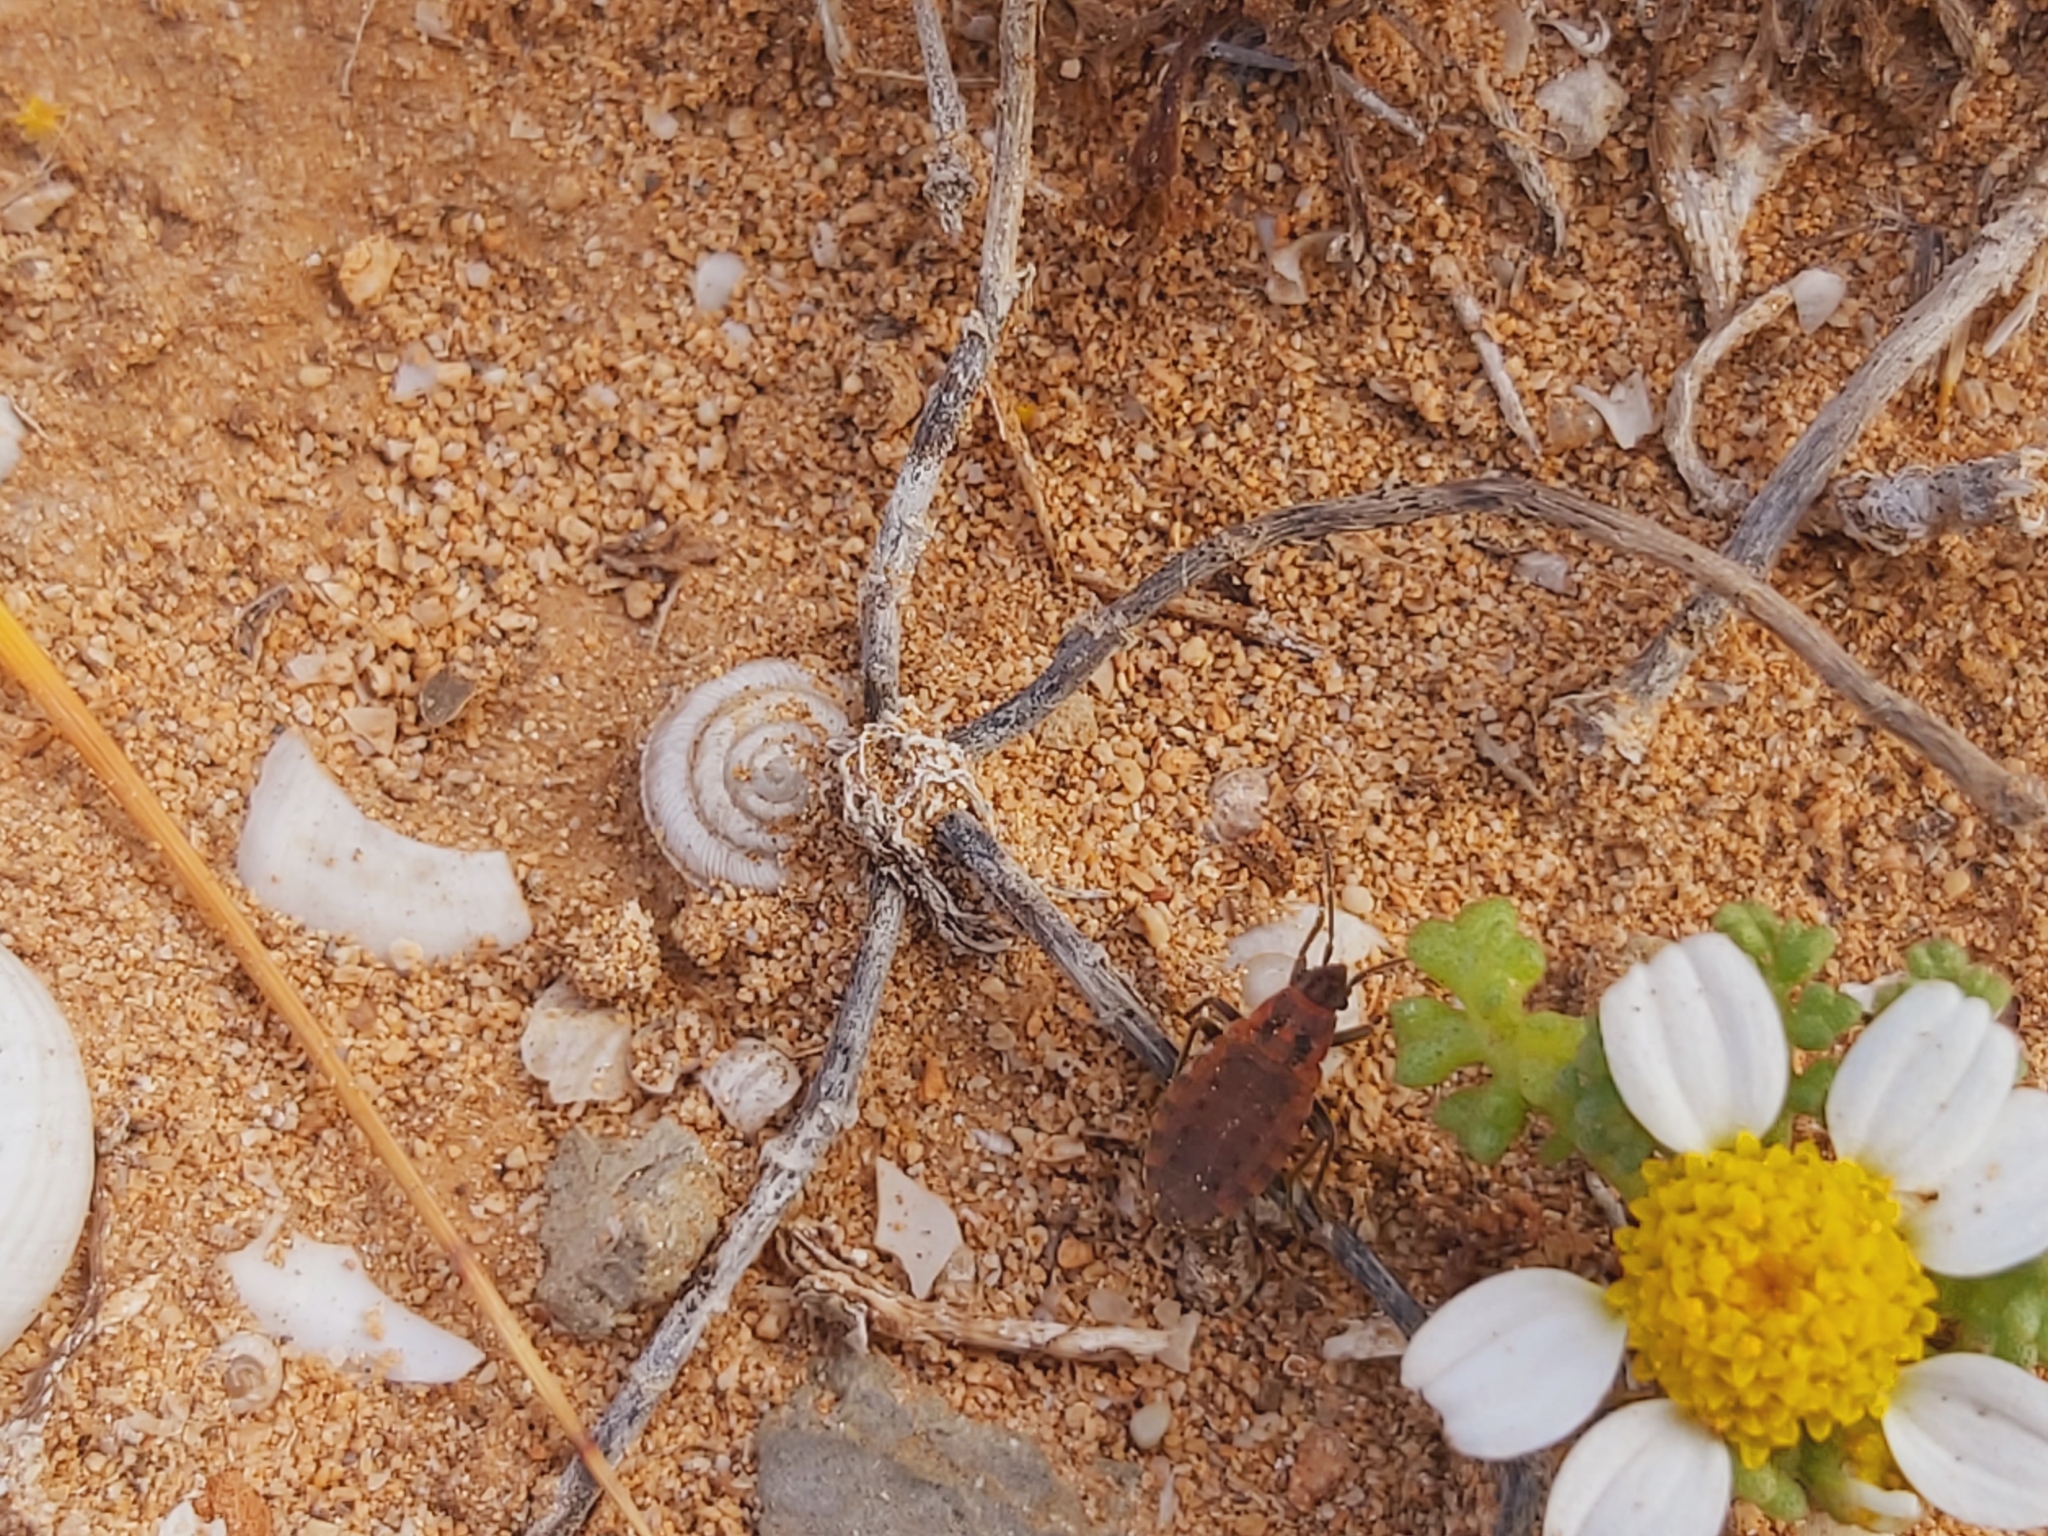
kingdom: Animalia
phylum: Arthropoda
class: Insecta
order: Hemiptera
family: Lygaeidae
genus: Apterola
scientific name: Apterola kunckeli
